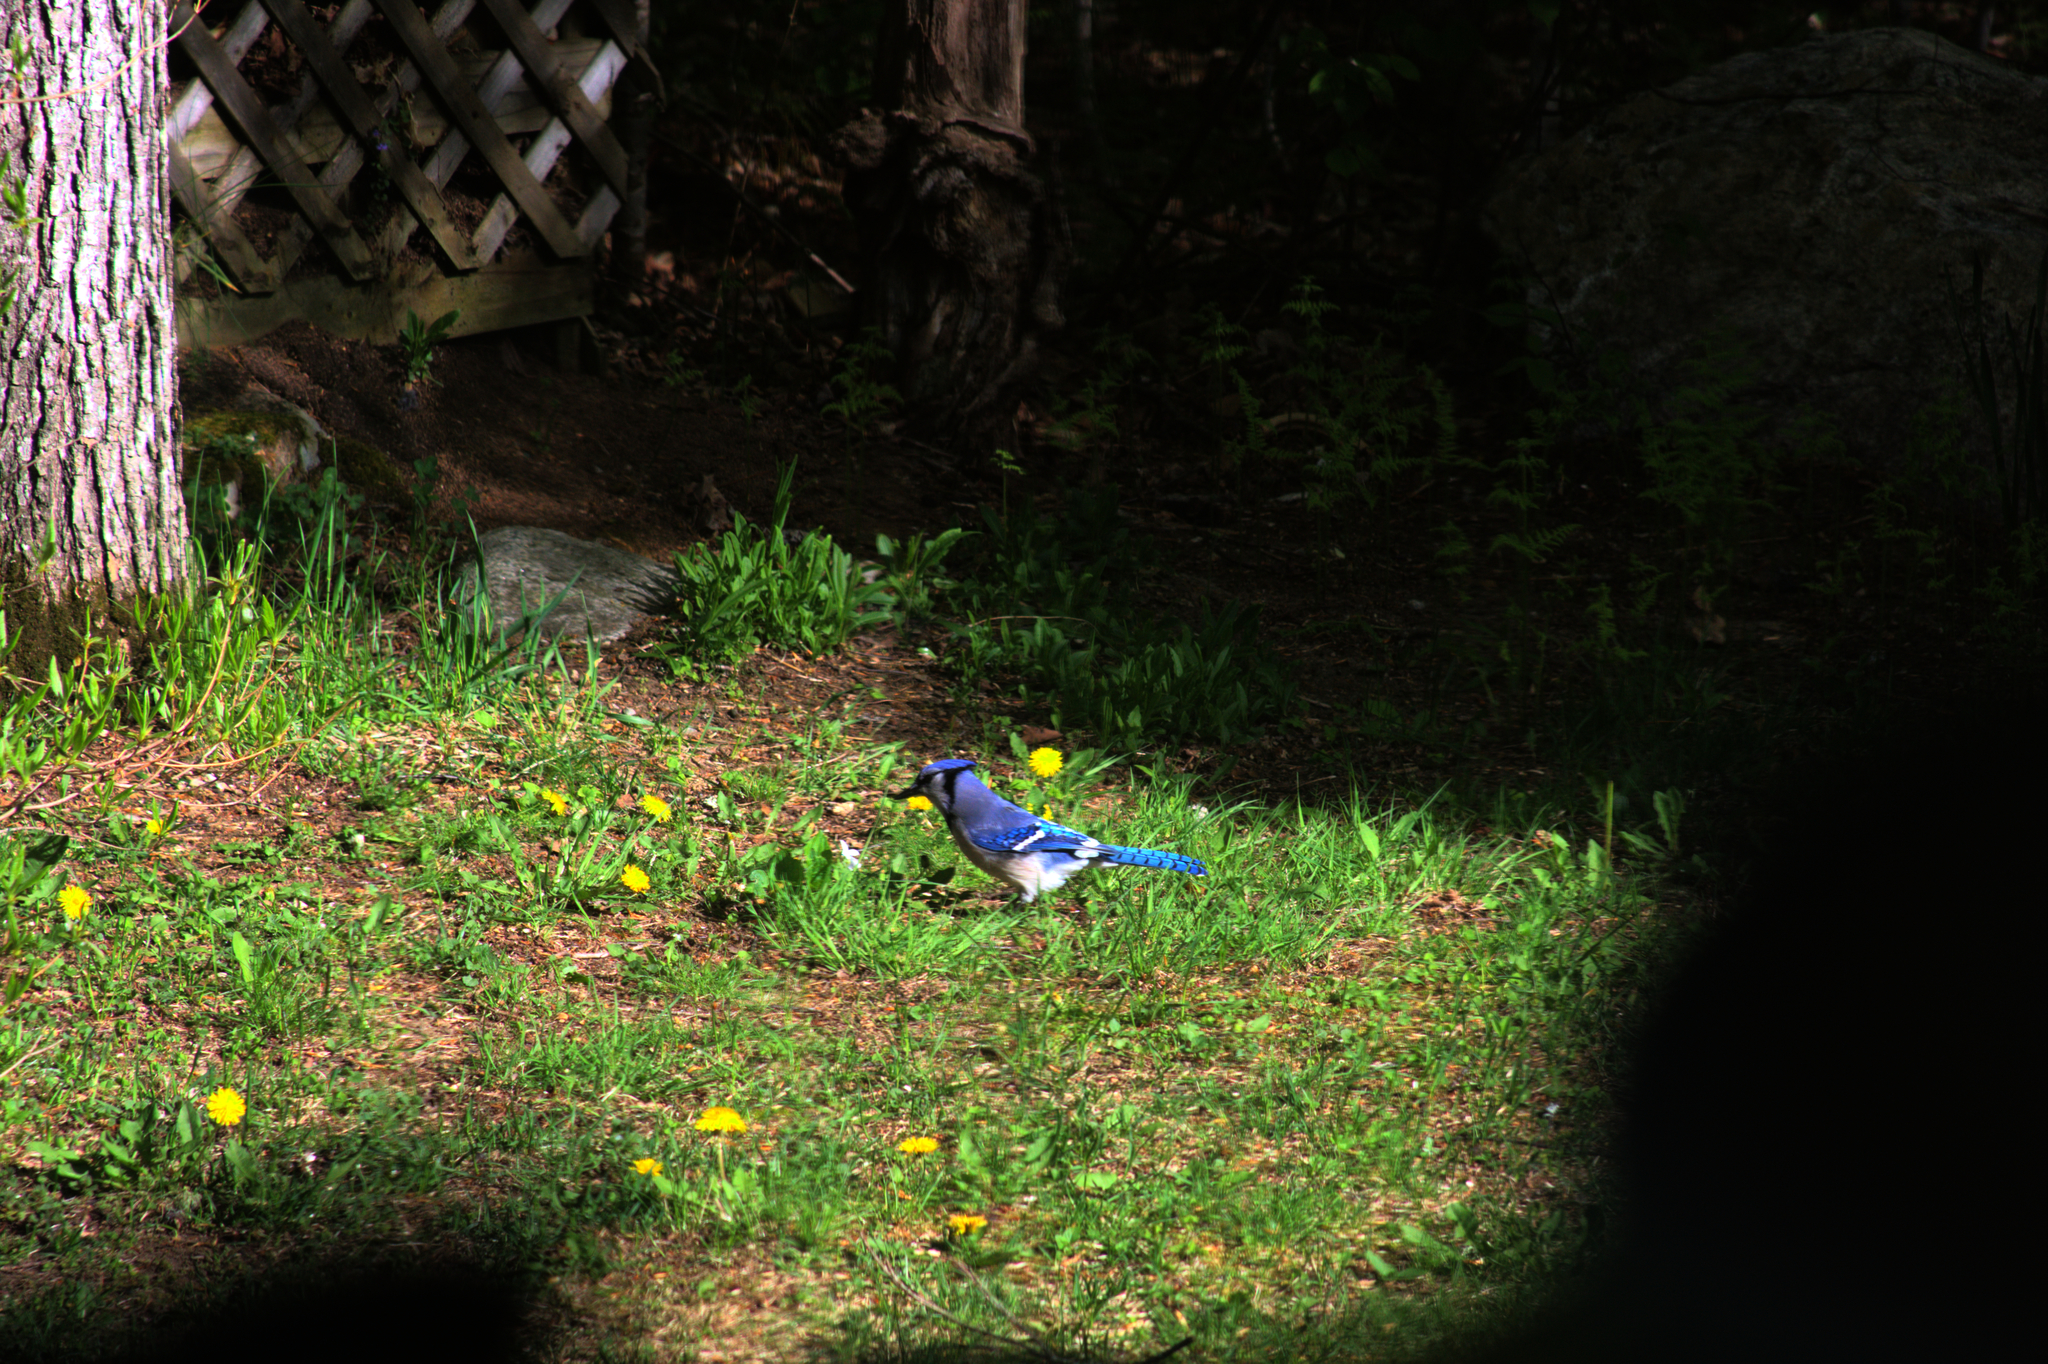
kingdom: Animalia
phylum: Chordata
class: Aves
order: Passeriformes
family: Corvidae
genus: Cyanocitta
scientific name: Cyanocitta cristata
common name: Blue jay
